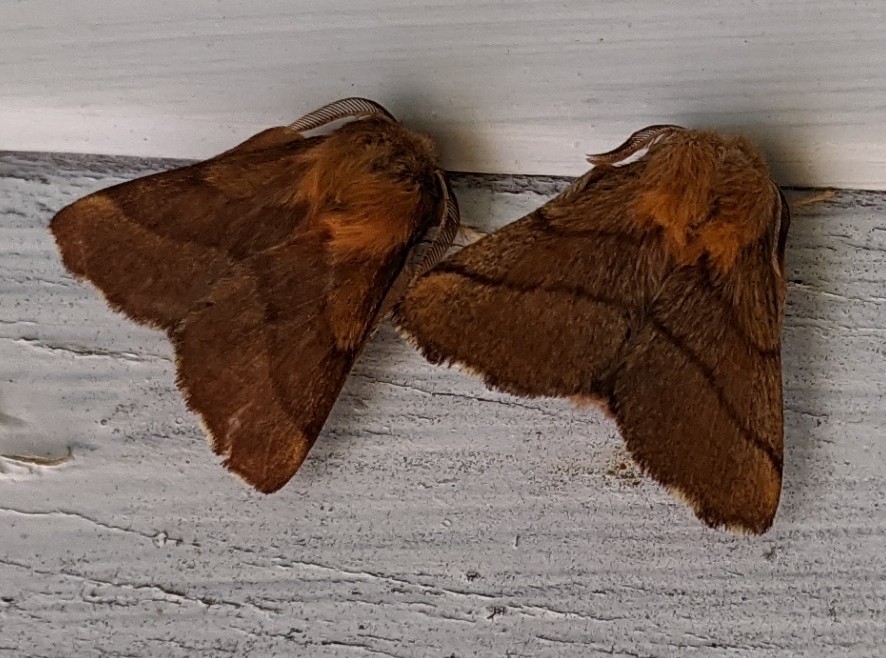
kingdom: Animalia
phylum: Arthropoda
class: Insecta
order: Lepidoptera
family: Lasiocampidae
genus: Malacosoma
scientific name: Malacosoma disstria
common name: Forest tent caterpillar
